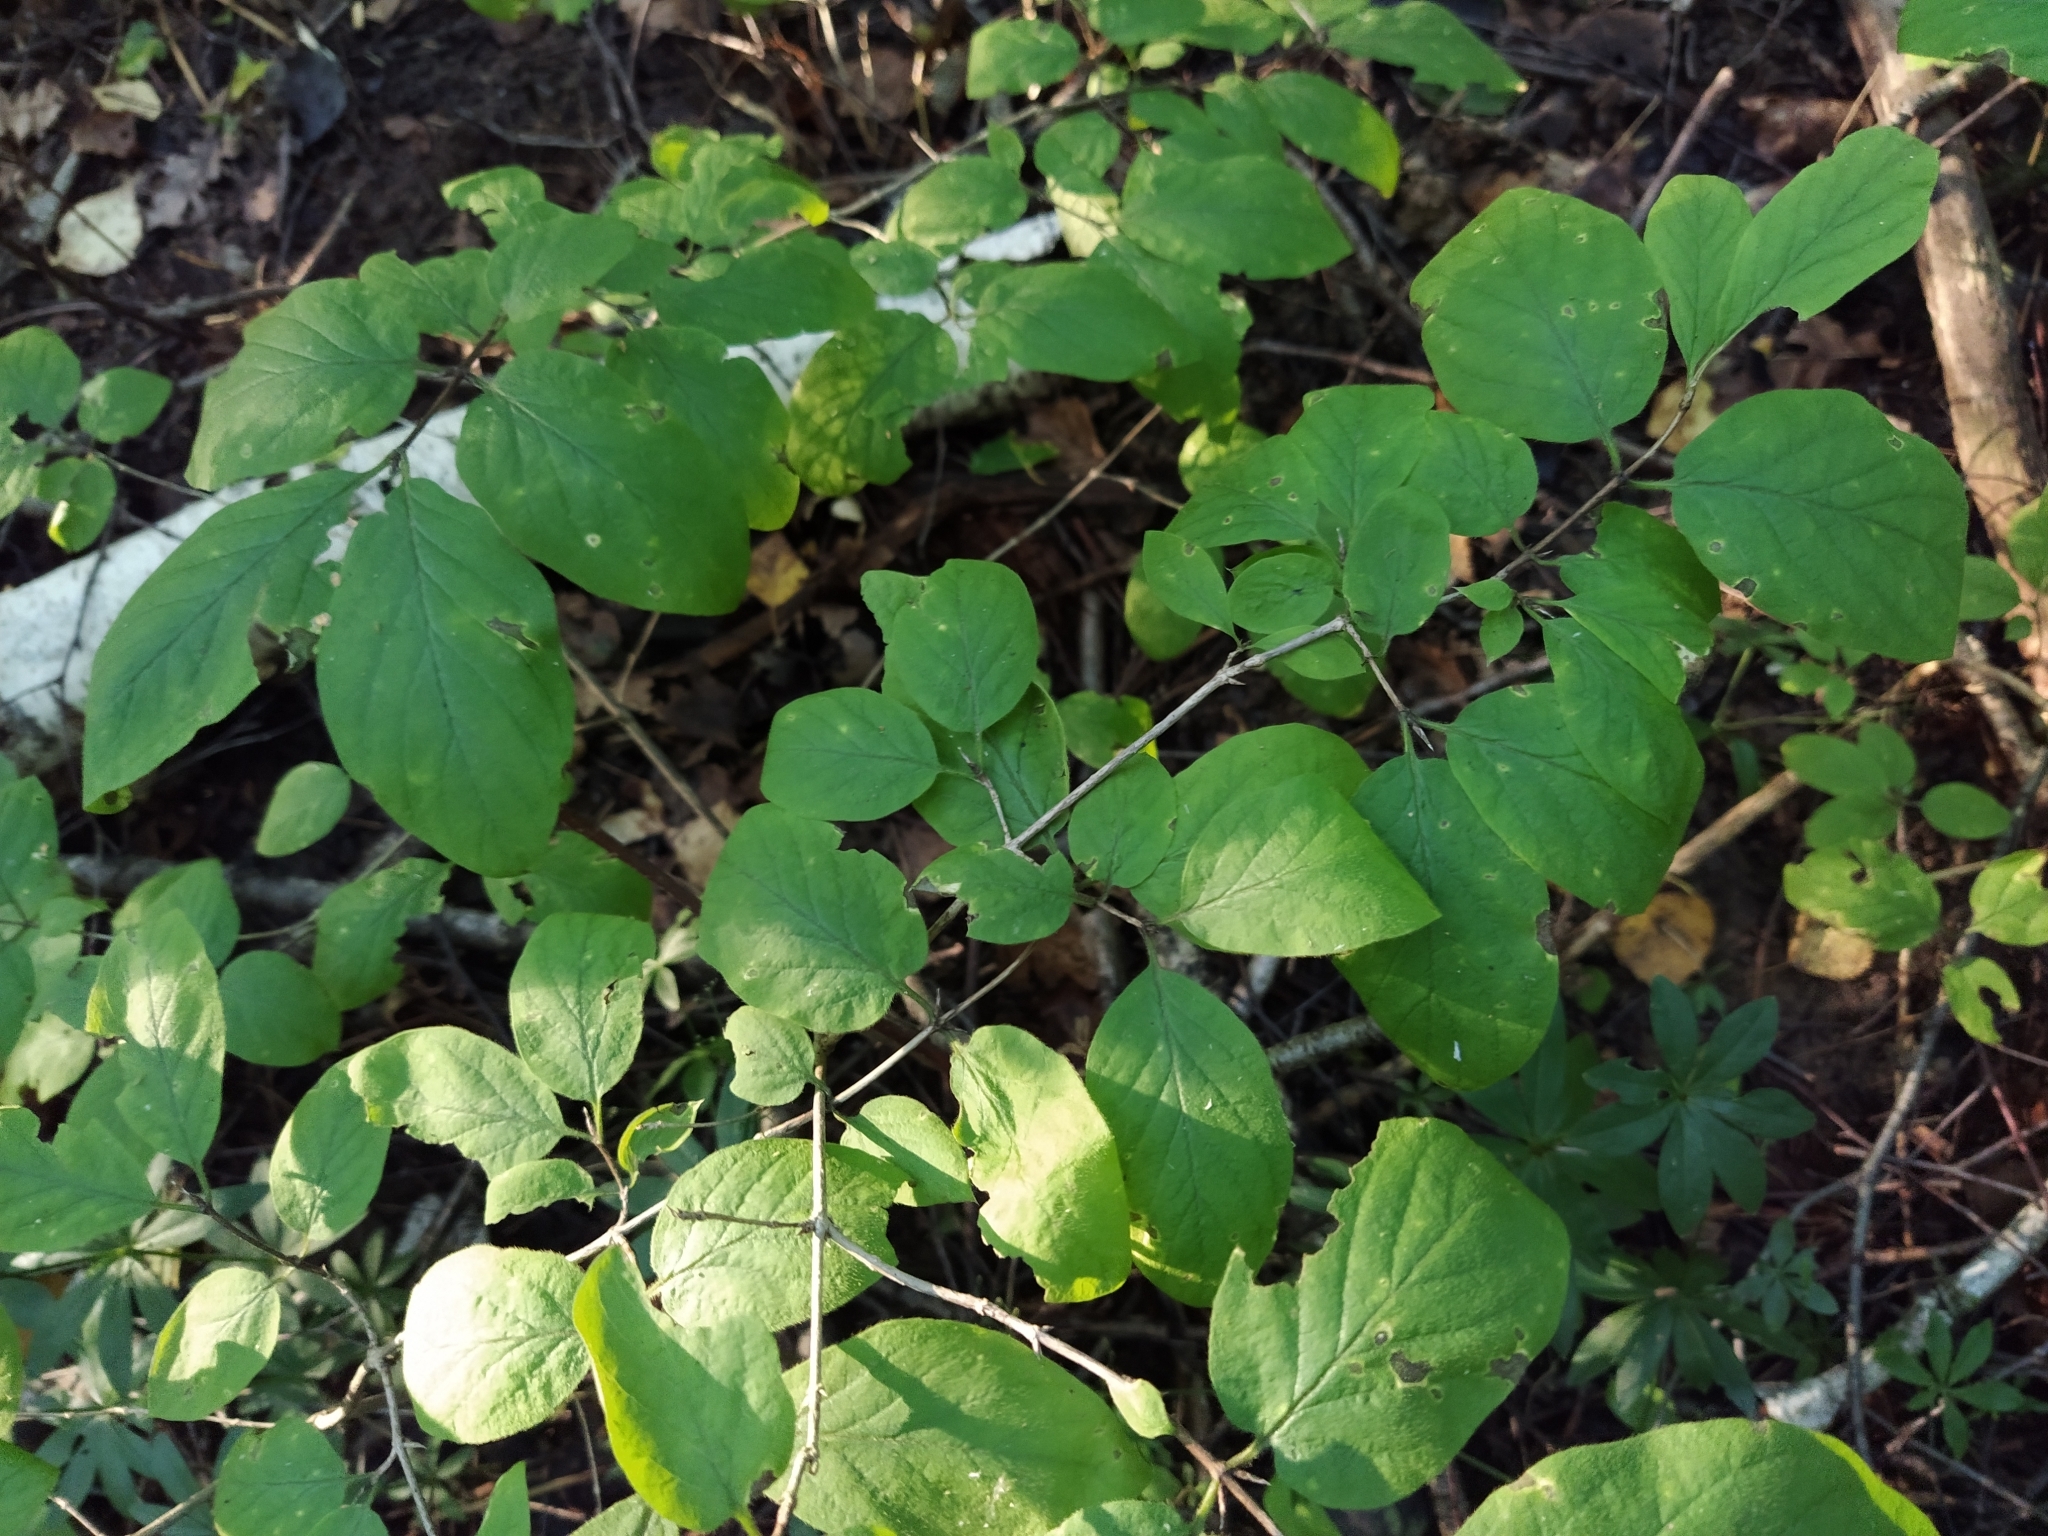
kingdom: Plantae
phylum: Tracheophyta
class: Magnoliopsida
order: Dipsacales
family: Caprifoliaceae
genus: Lonicera
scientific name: Lonicera xylosteum
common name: Fly honeysuckle
